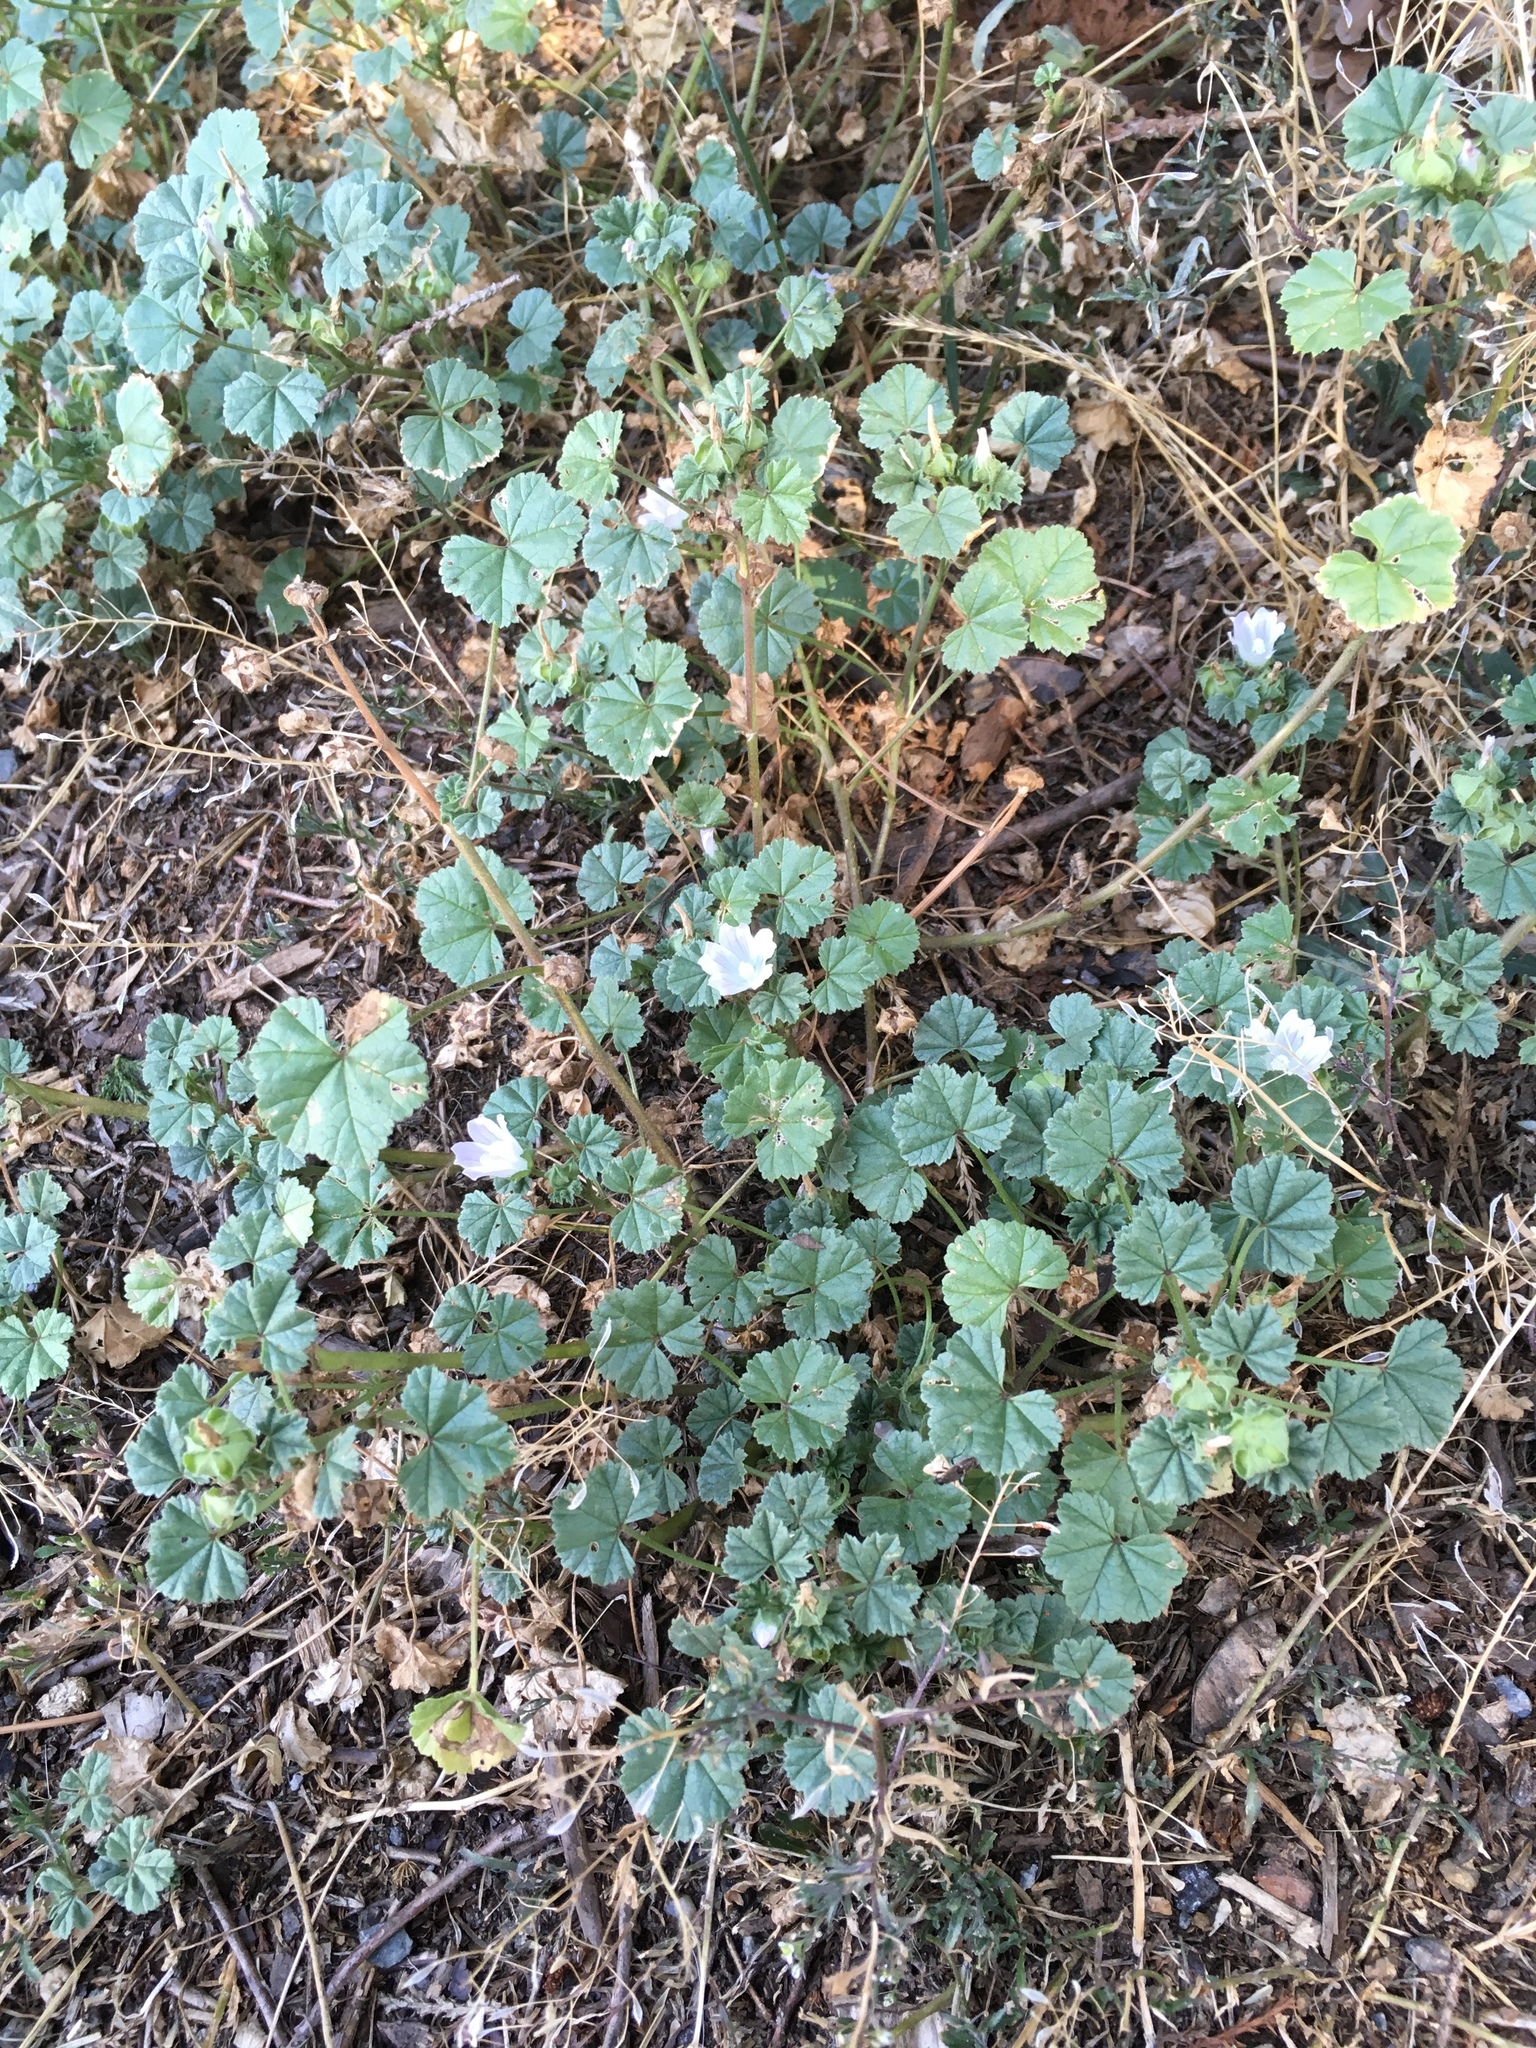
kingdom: Plantae
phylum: Tracheophyta
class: Magnoliopsida
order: Malvales
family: Malvaceae
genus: Malva
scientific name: Malva neglecta
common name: Common mallow
